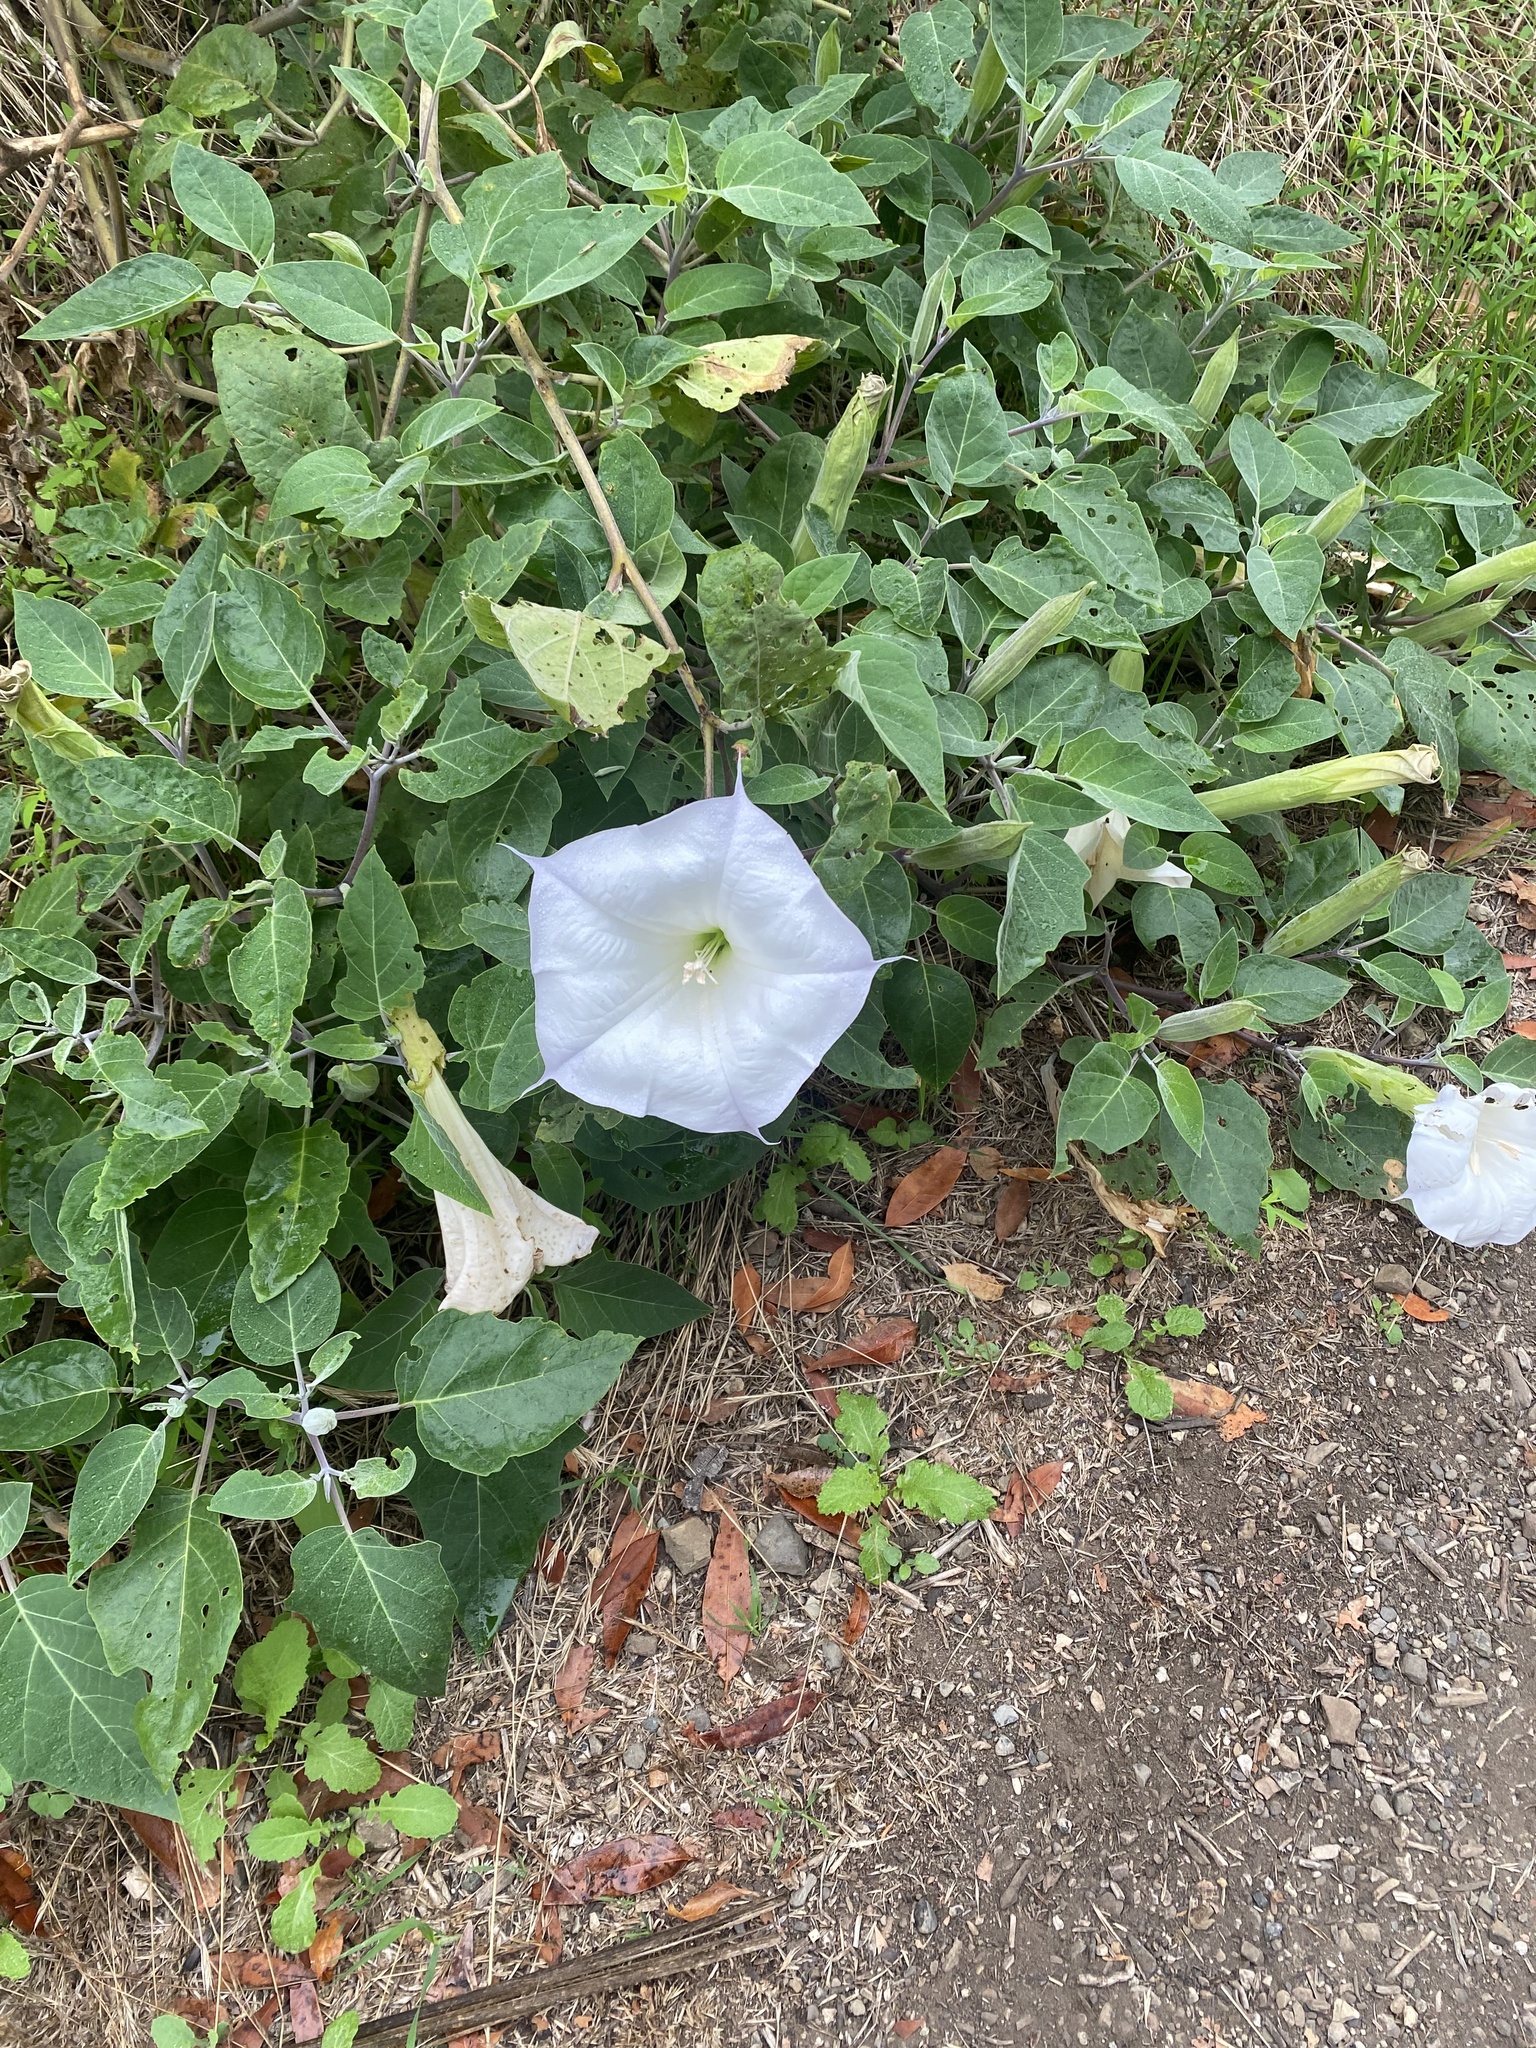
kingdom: Plantae
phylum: Tracheophyta
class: Magnoliopsida
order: Solanales
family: Solanaceae
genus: Datura
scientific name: Datura wrightii
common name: Sacred thorn-apple
